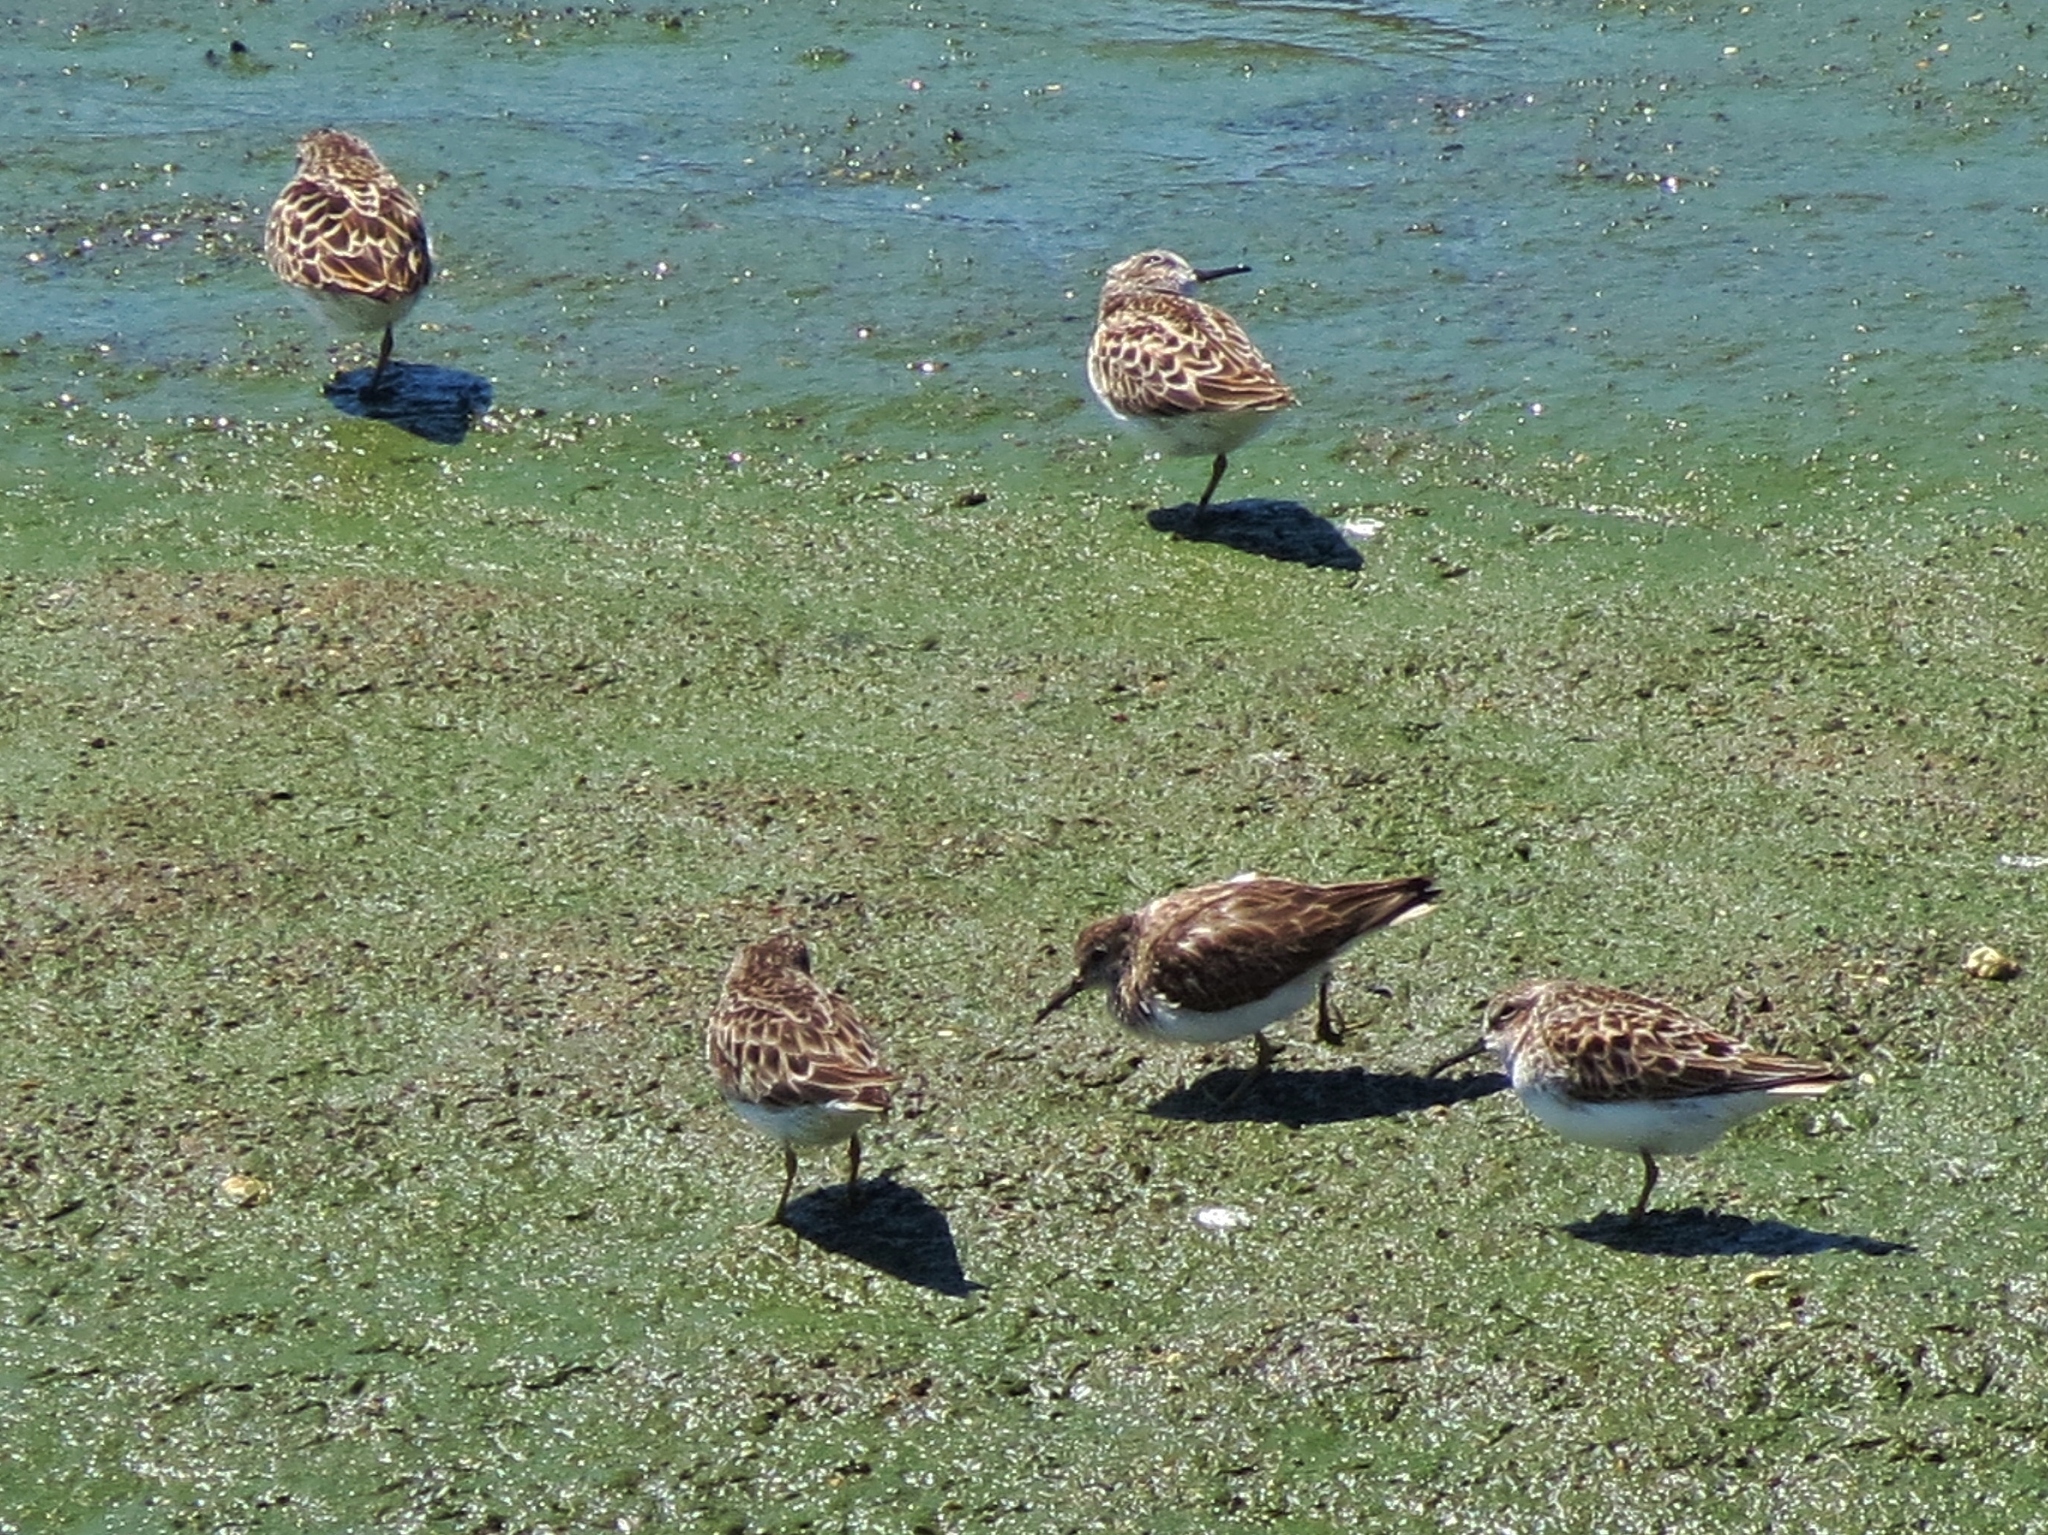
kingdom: Animalia
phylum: Chordata
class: Aves
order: Charadriiformes
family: Scolopacidae
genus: Calidris
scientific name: Calidris minutilla
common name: Least sandpiper
